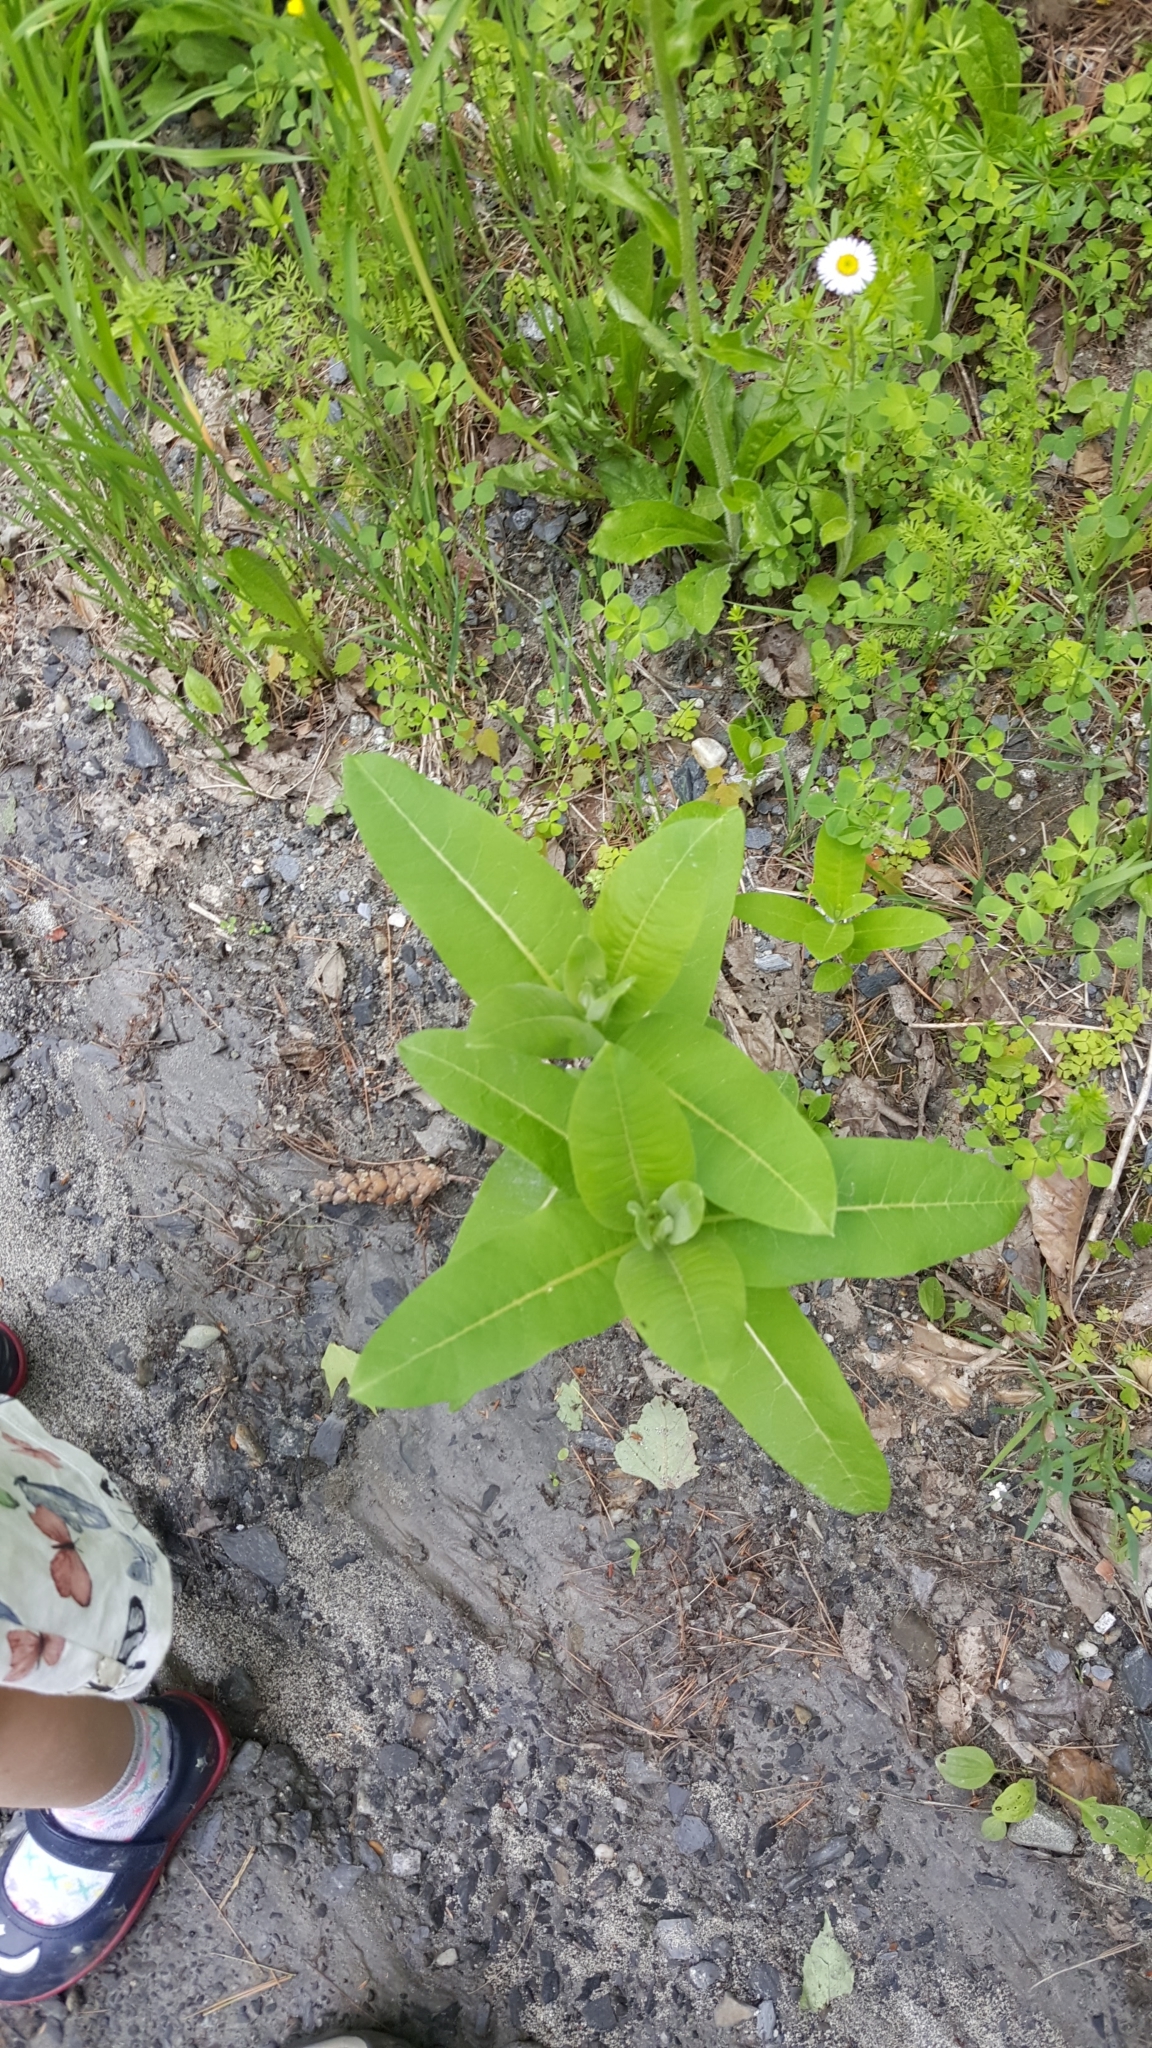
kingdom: Plantae
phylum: Tracheophyta
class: Magnoliopsida
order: Gentianales
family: Apocynaceae
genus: Asclepias
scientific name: Asclepias syriaca
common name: Common milkweed
